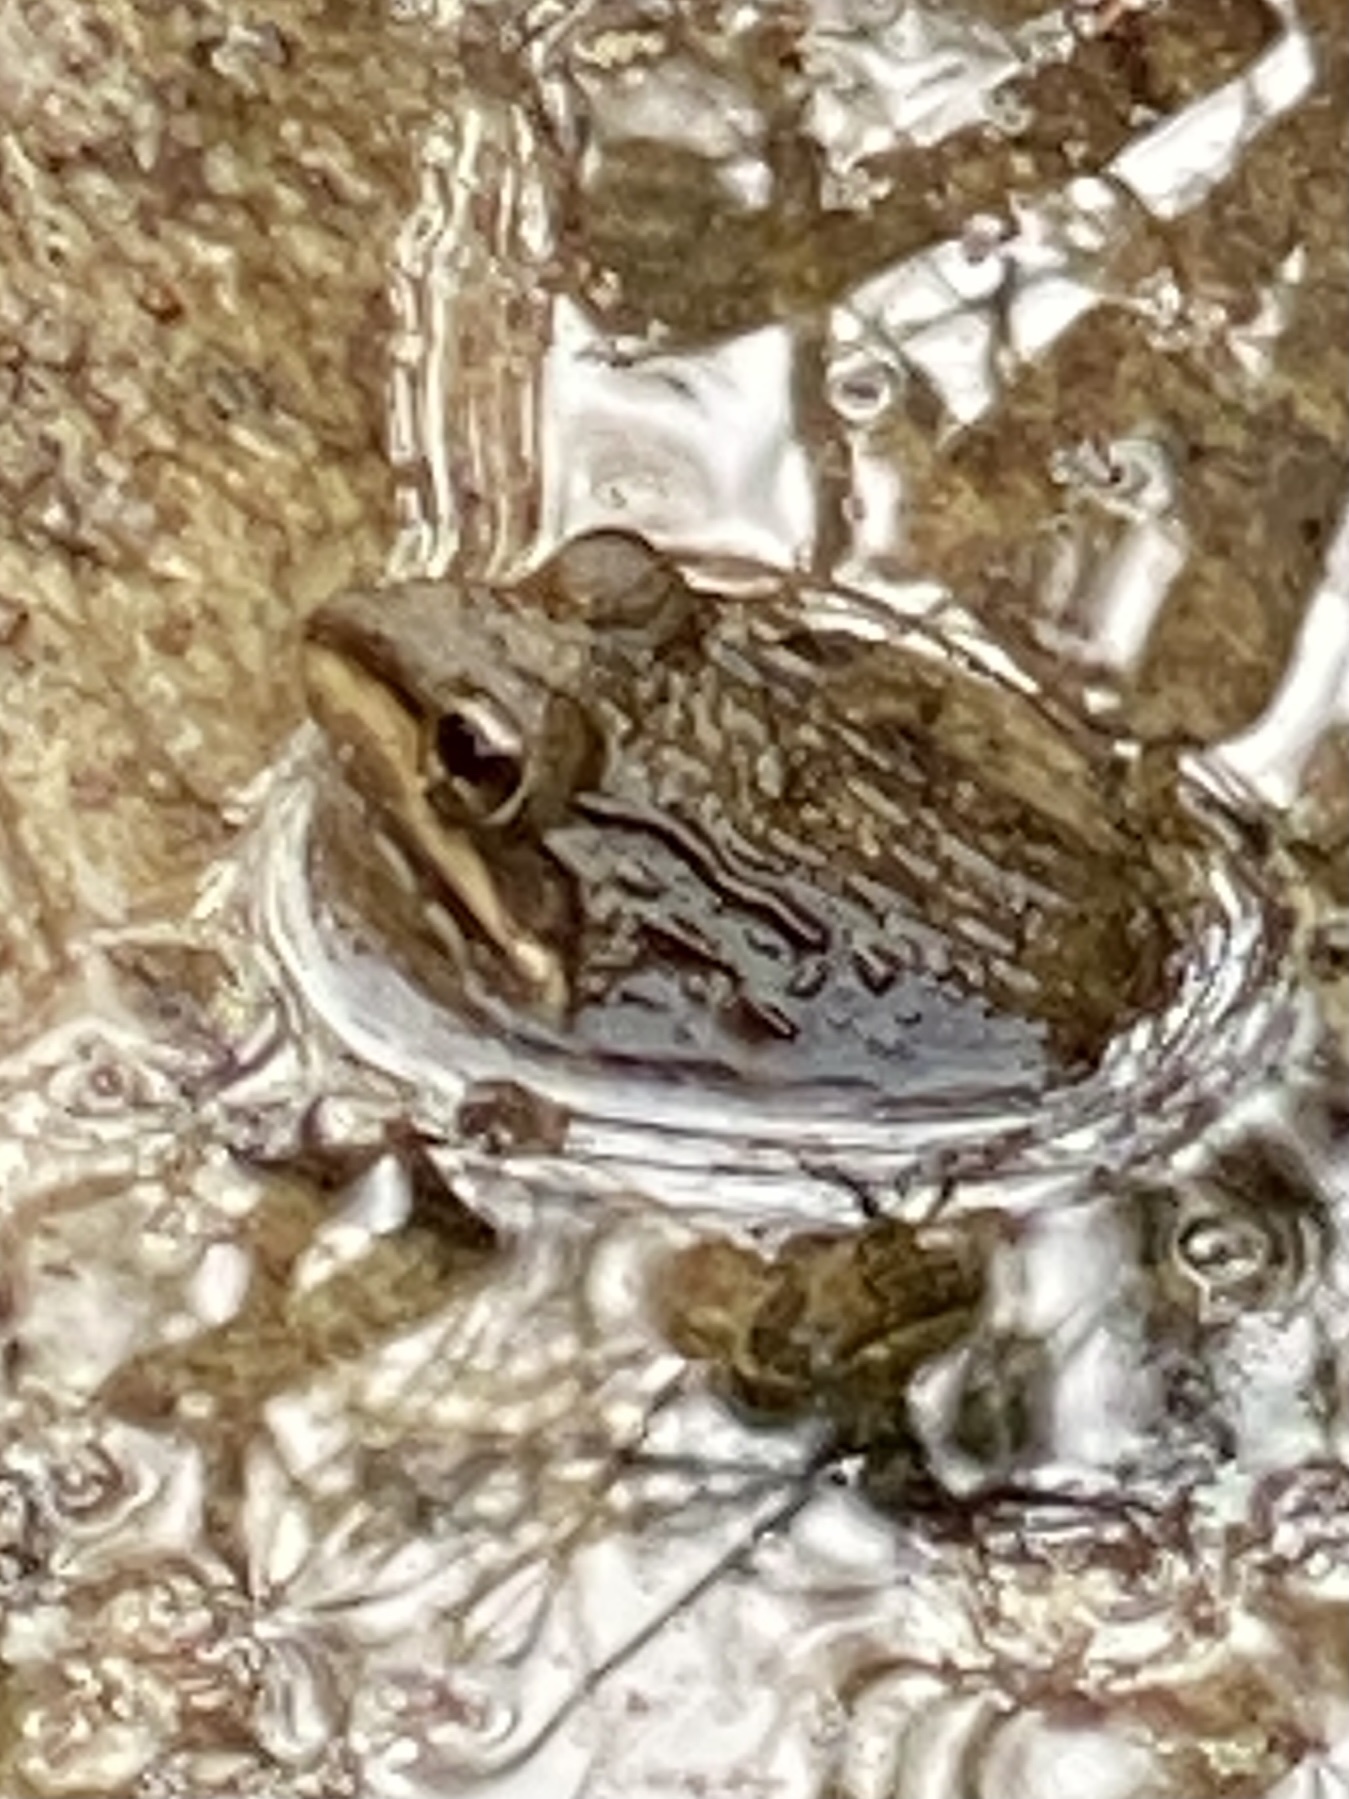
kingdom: Animalia
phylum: Chordata
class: Amphibia
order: Anura
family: Pyxicephalidae
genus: Amietia
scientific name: Amietia fuscigula
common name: Cape rana
